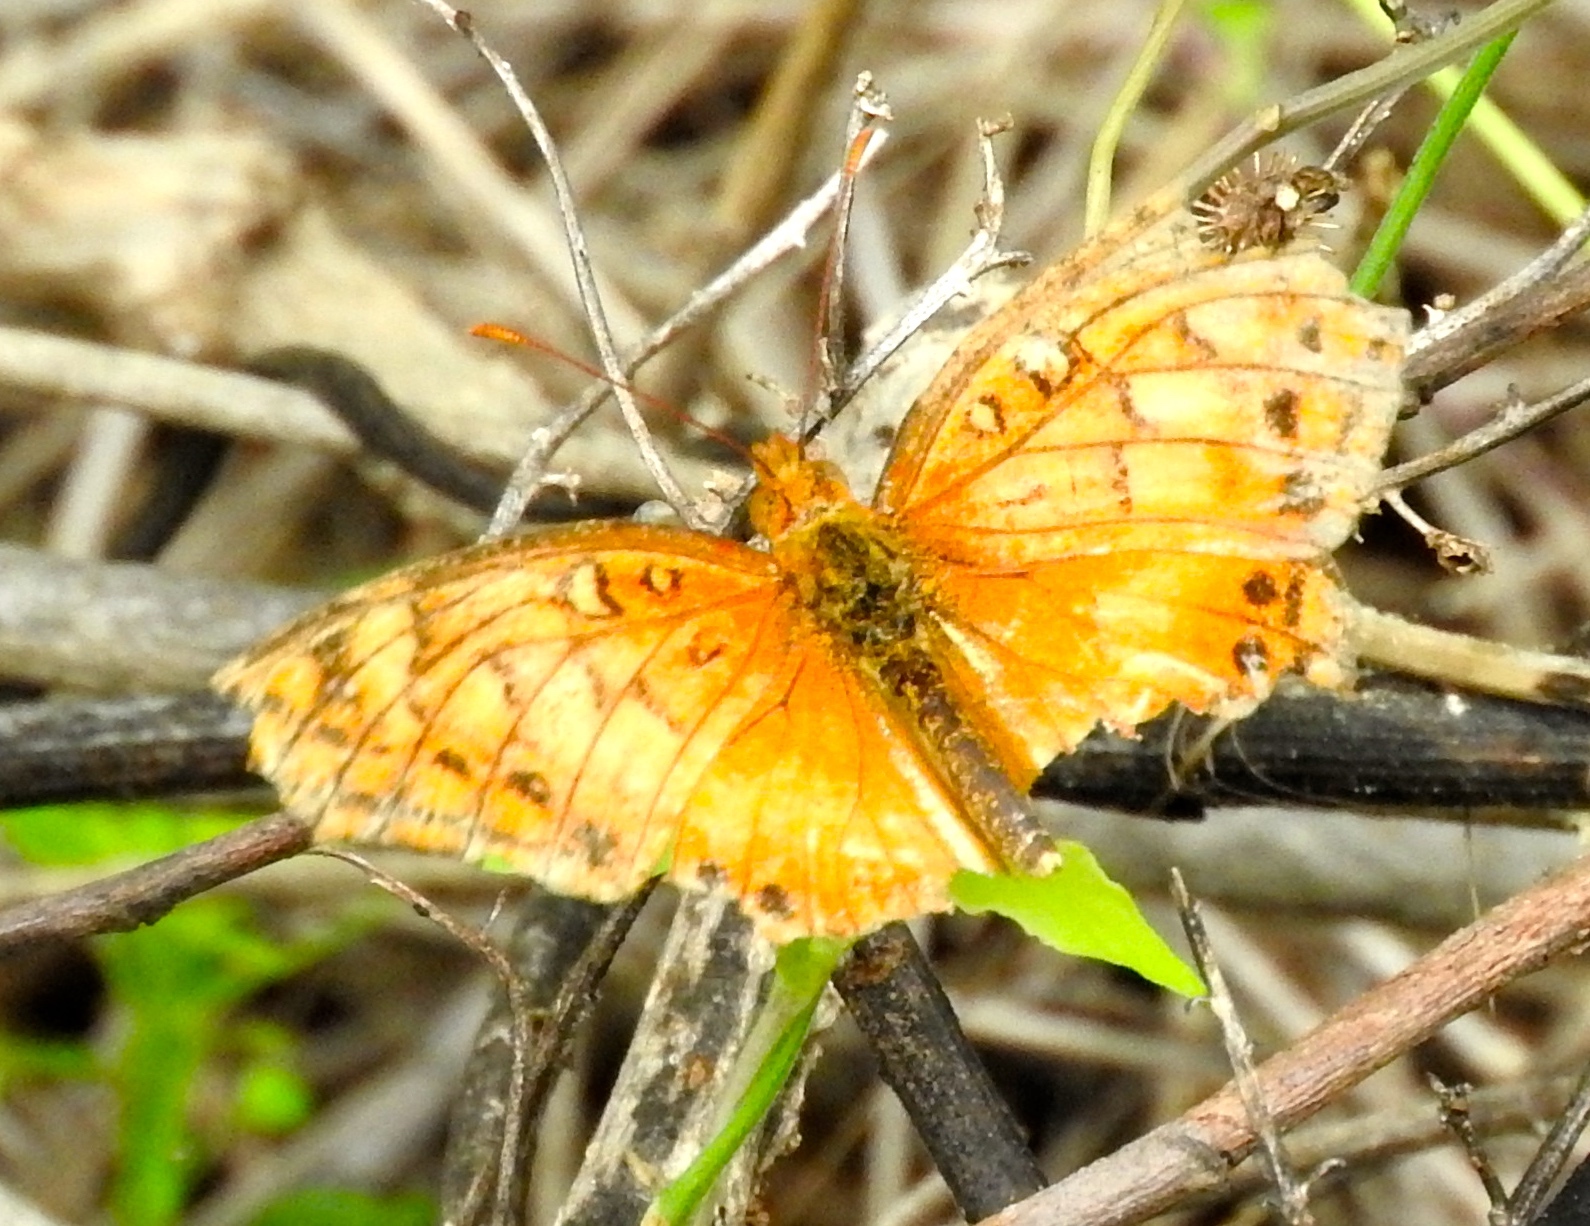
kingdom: Animalia
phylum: Arthropoda
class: Insecta
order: Lepidoptera
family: Nymphalidae
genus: Euptoieta
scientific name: Euptoieta hegesia
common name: Mexican fritillary
